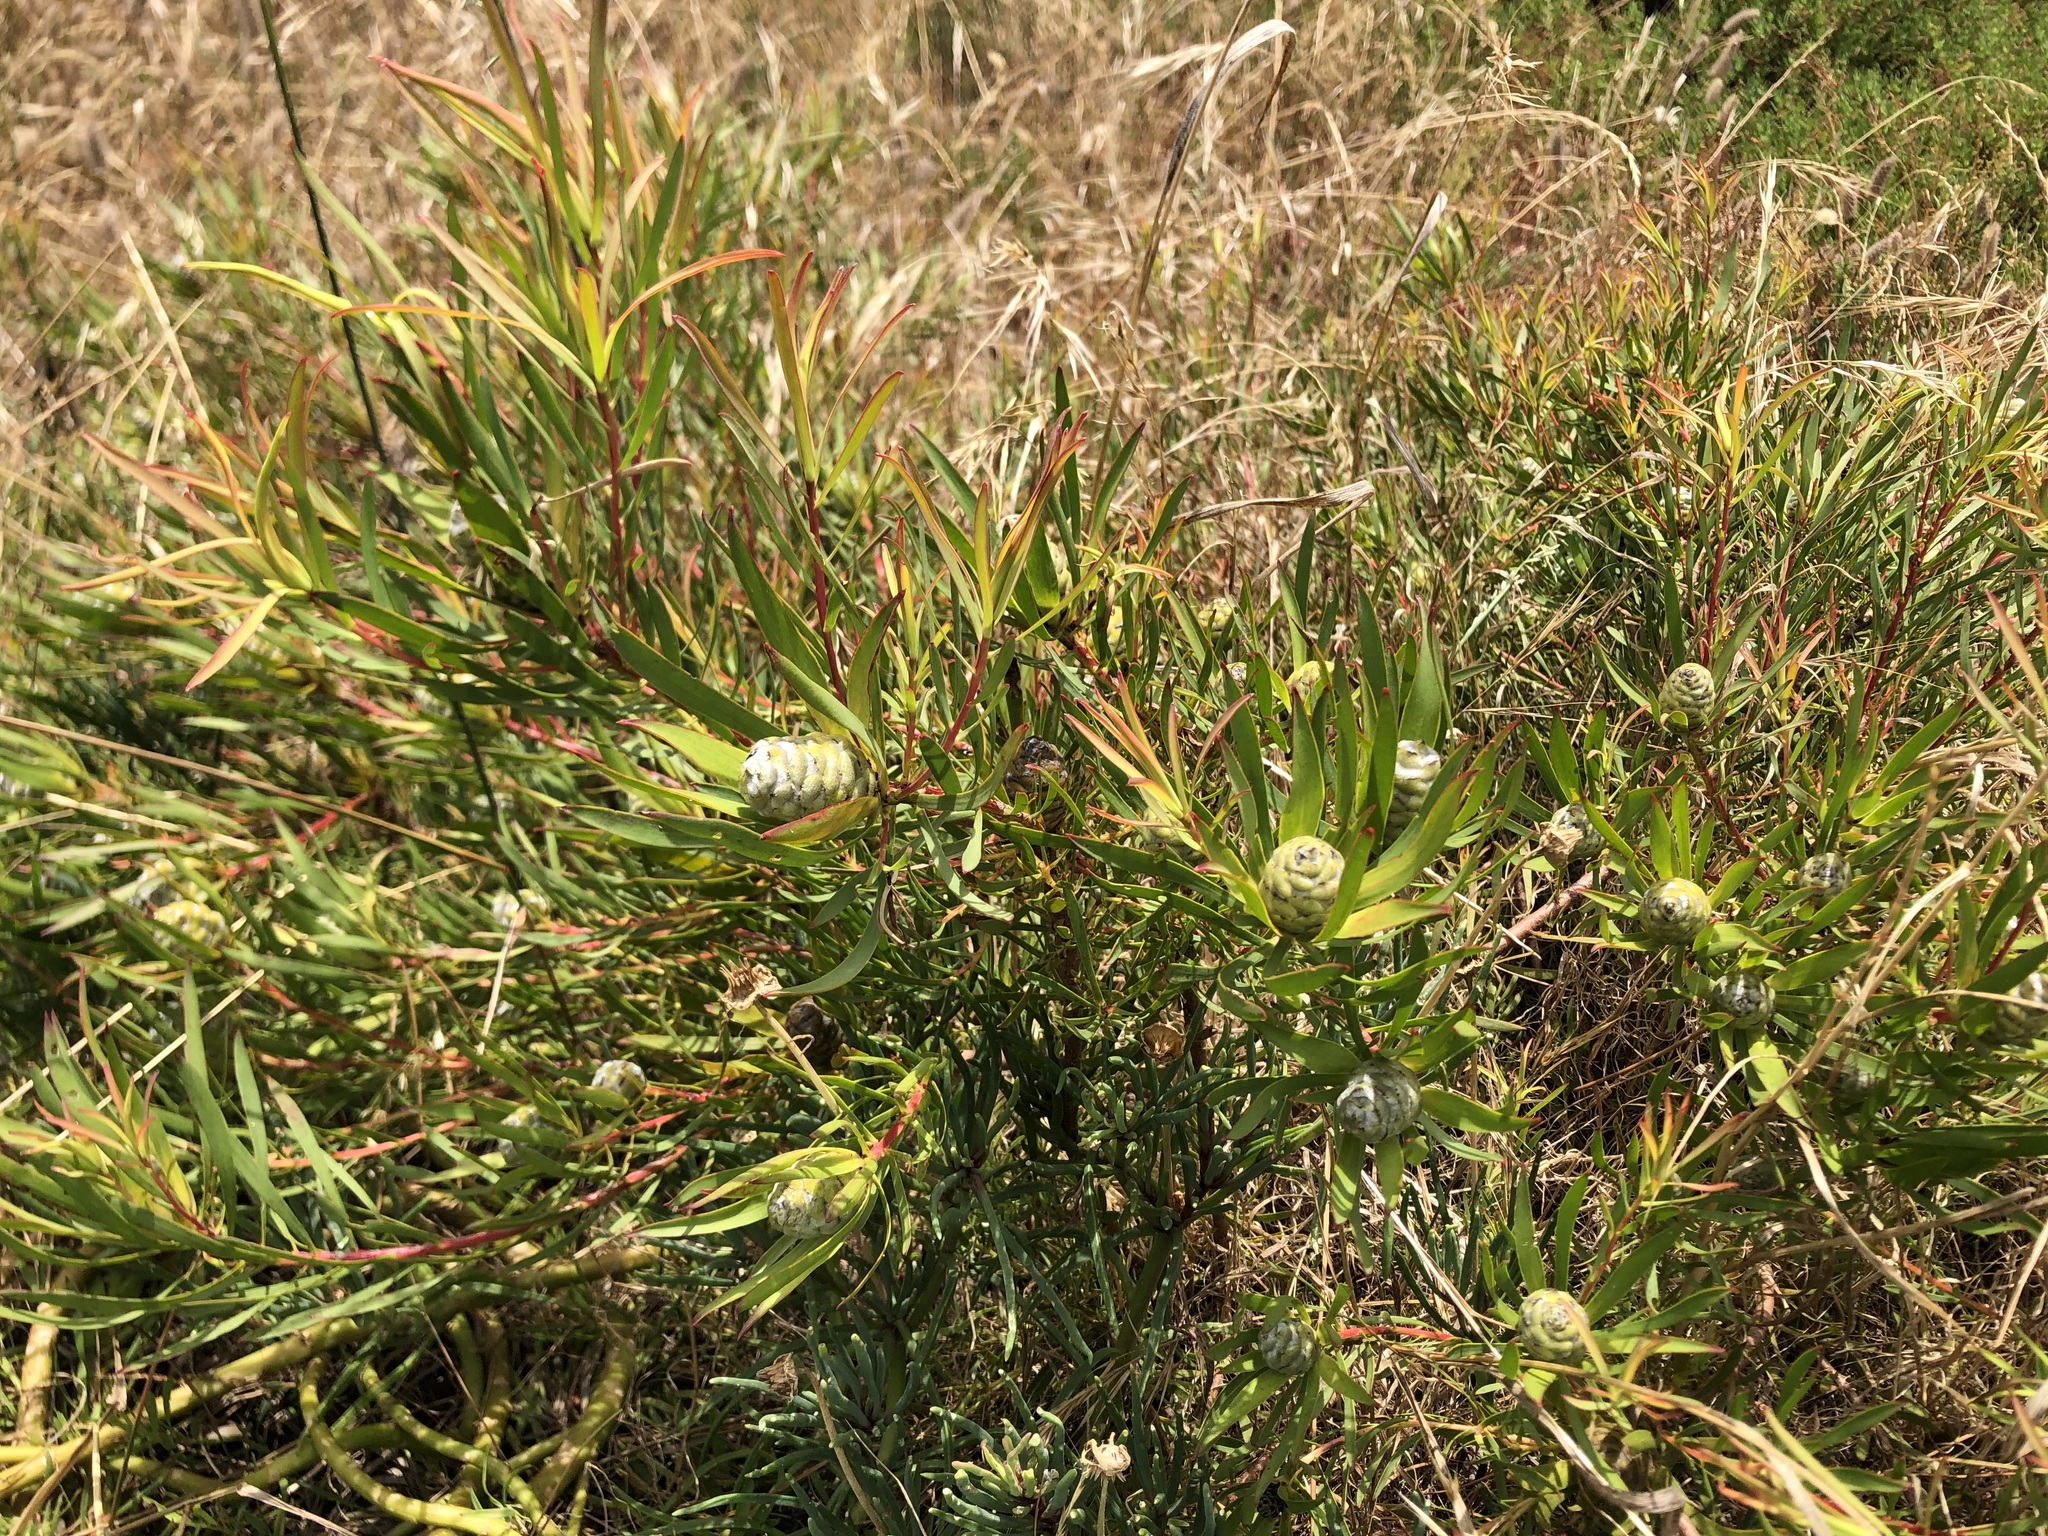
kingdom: Plantae
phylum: Tracheophyta
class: Magnoliopsida
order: Proteales
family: Proteaceae
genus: Leucadendron
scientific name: Leucadendron salignum
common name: Common sunshine conebush
